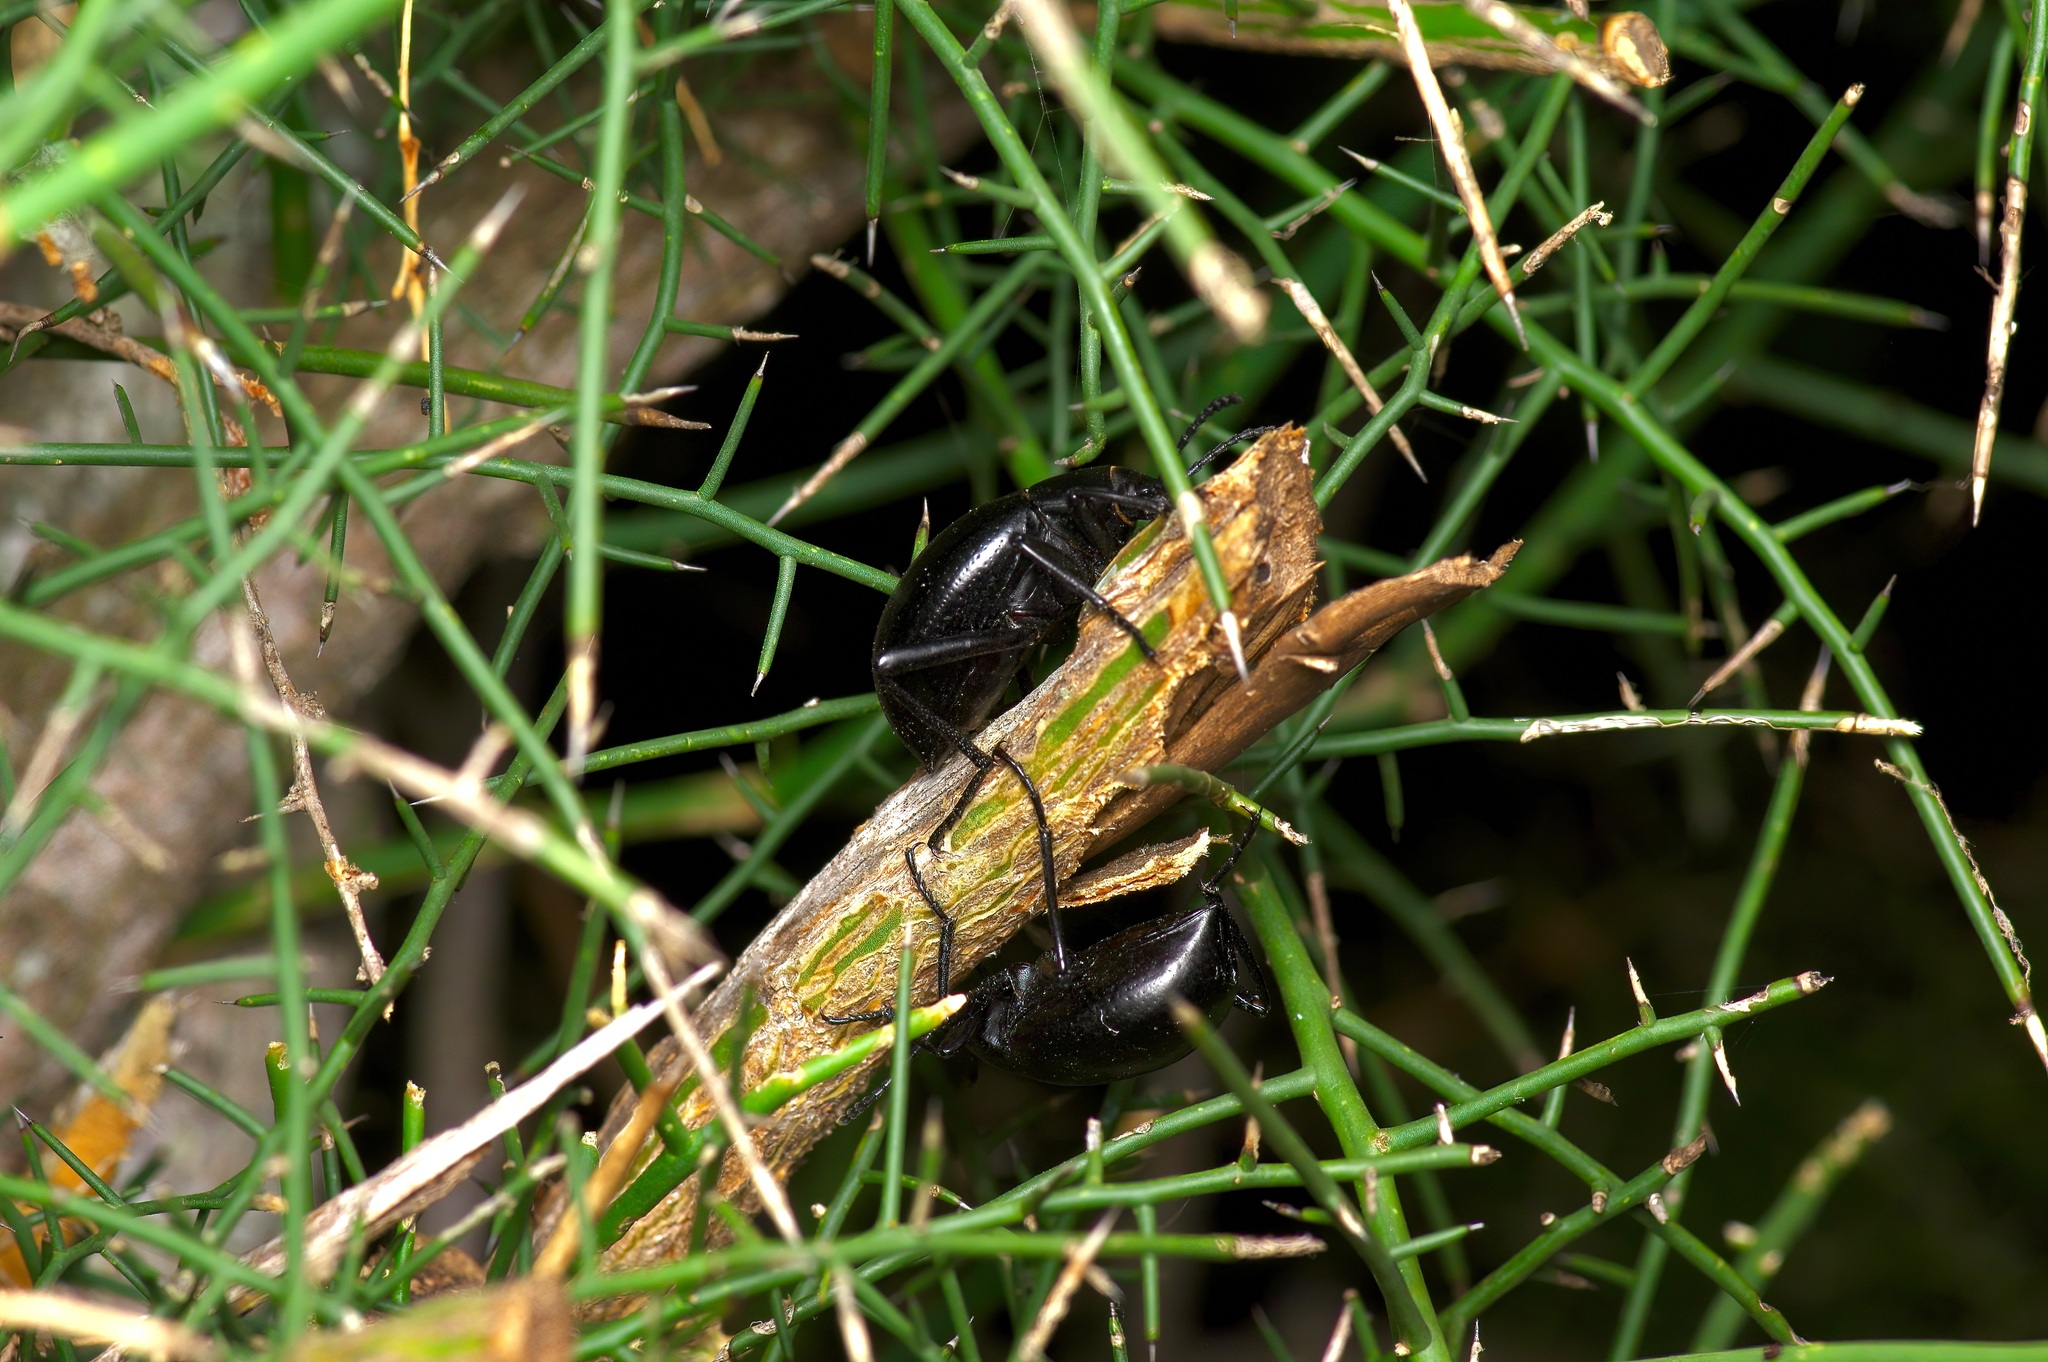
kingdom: Animalia
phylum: Arthropoda
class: Insecta
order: Coleoptera
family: Tenebrionidae
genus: Eleodes
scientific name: Eleodes goryi
